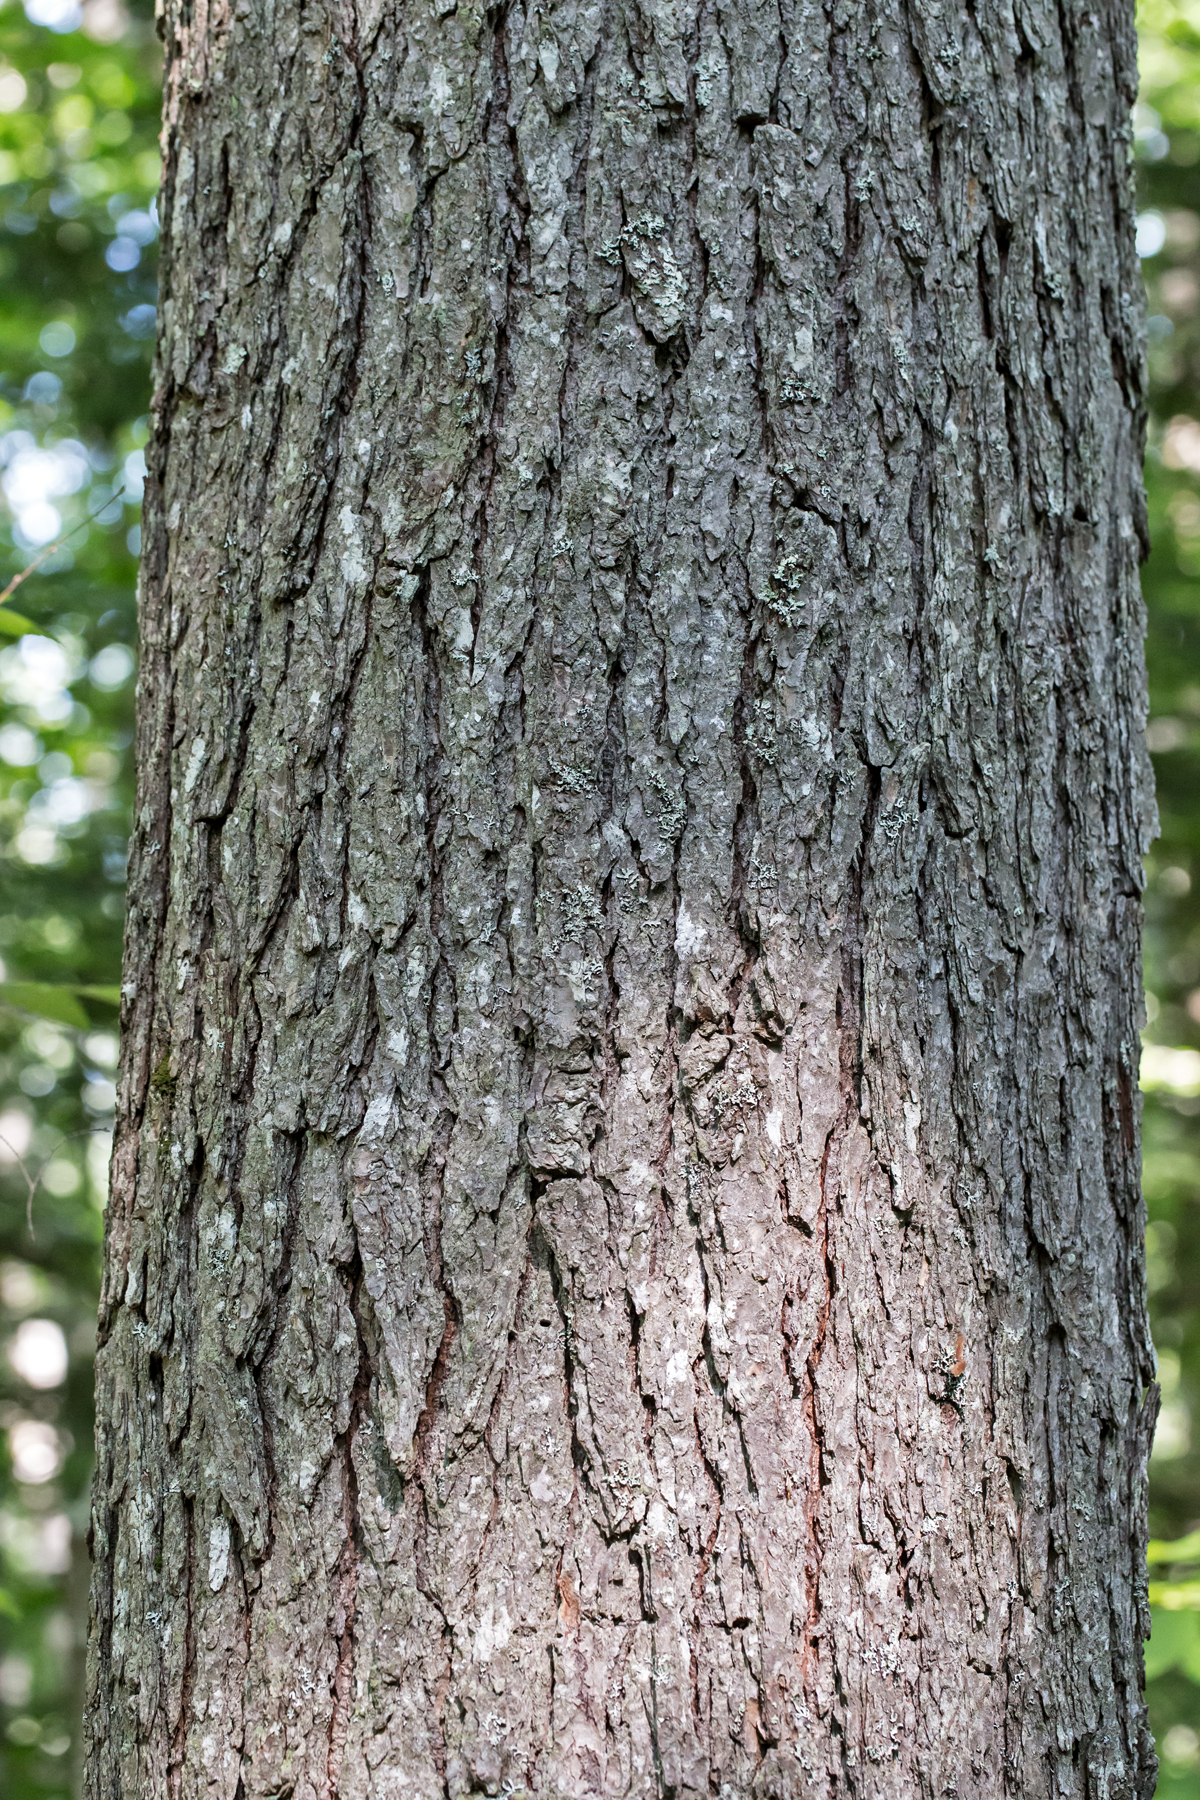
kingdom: Plantae
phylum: Tracheophyta
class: Pinopsida
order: Pinales
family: Pinaceae
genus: Tsuga
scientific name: Tsuga canadensis
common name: Eastern hemlock
